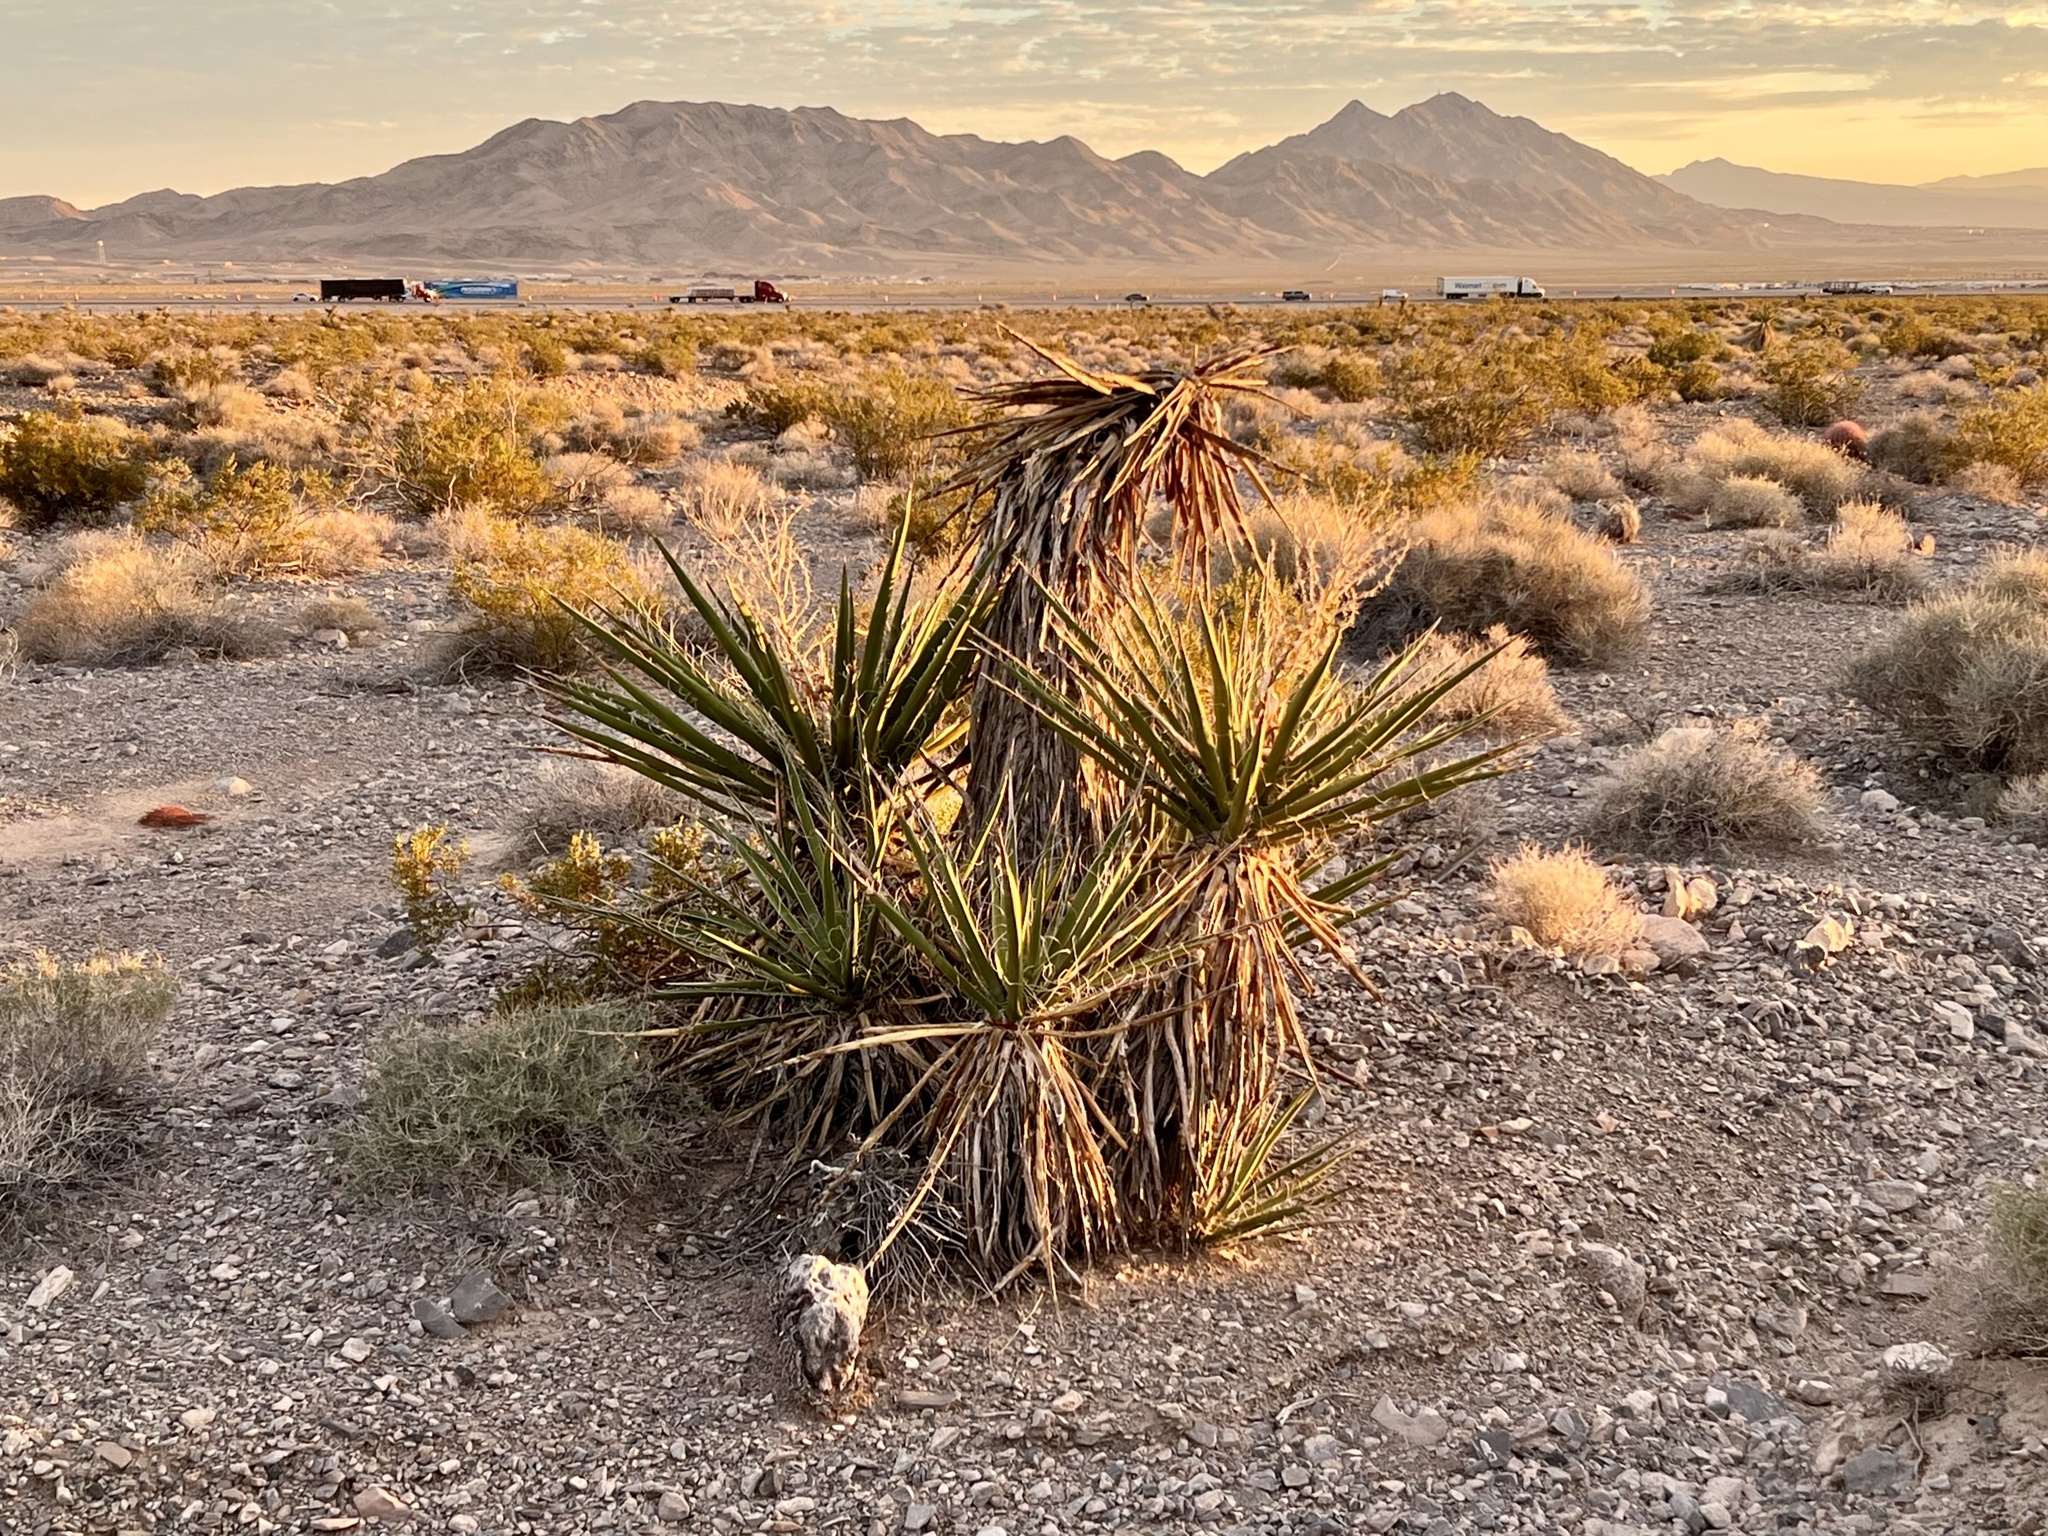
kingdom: Plantae
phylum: Tracheophyta
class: Liliopsida
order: Asparagales
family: Asparagaceae
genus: Yucca
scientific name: Yucca schidigera
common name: Mojave yucca
